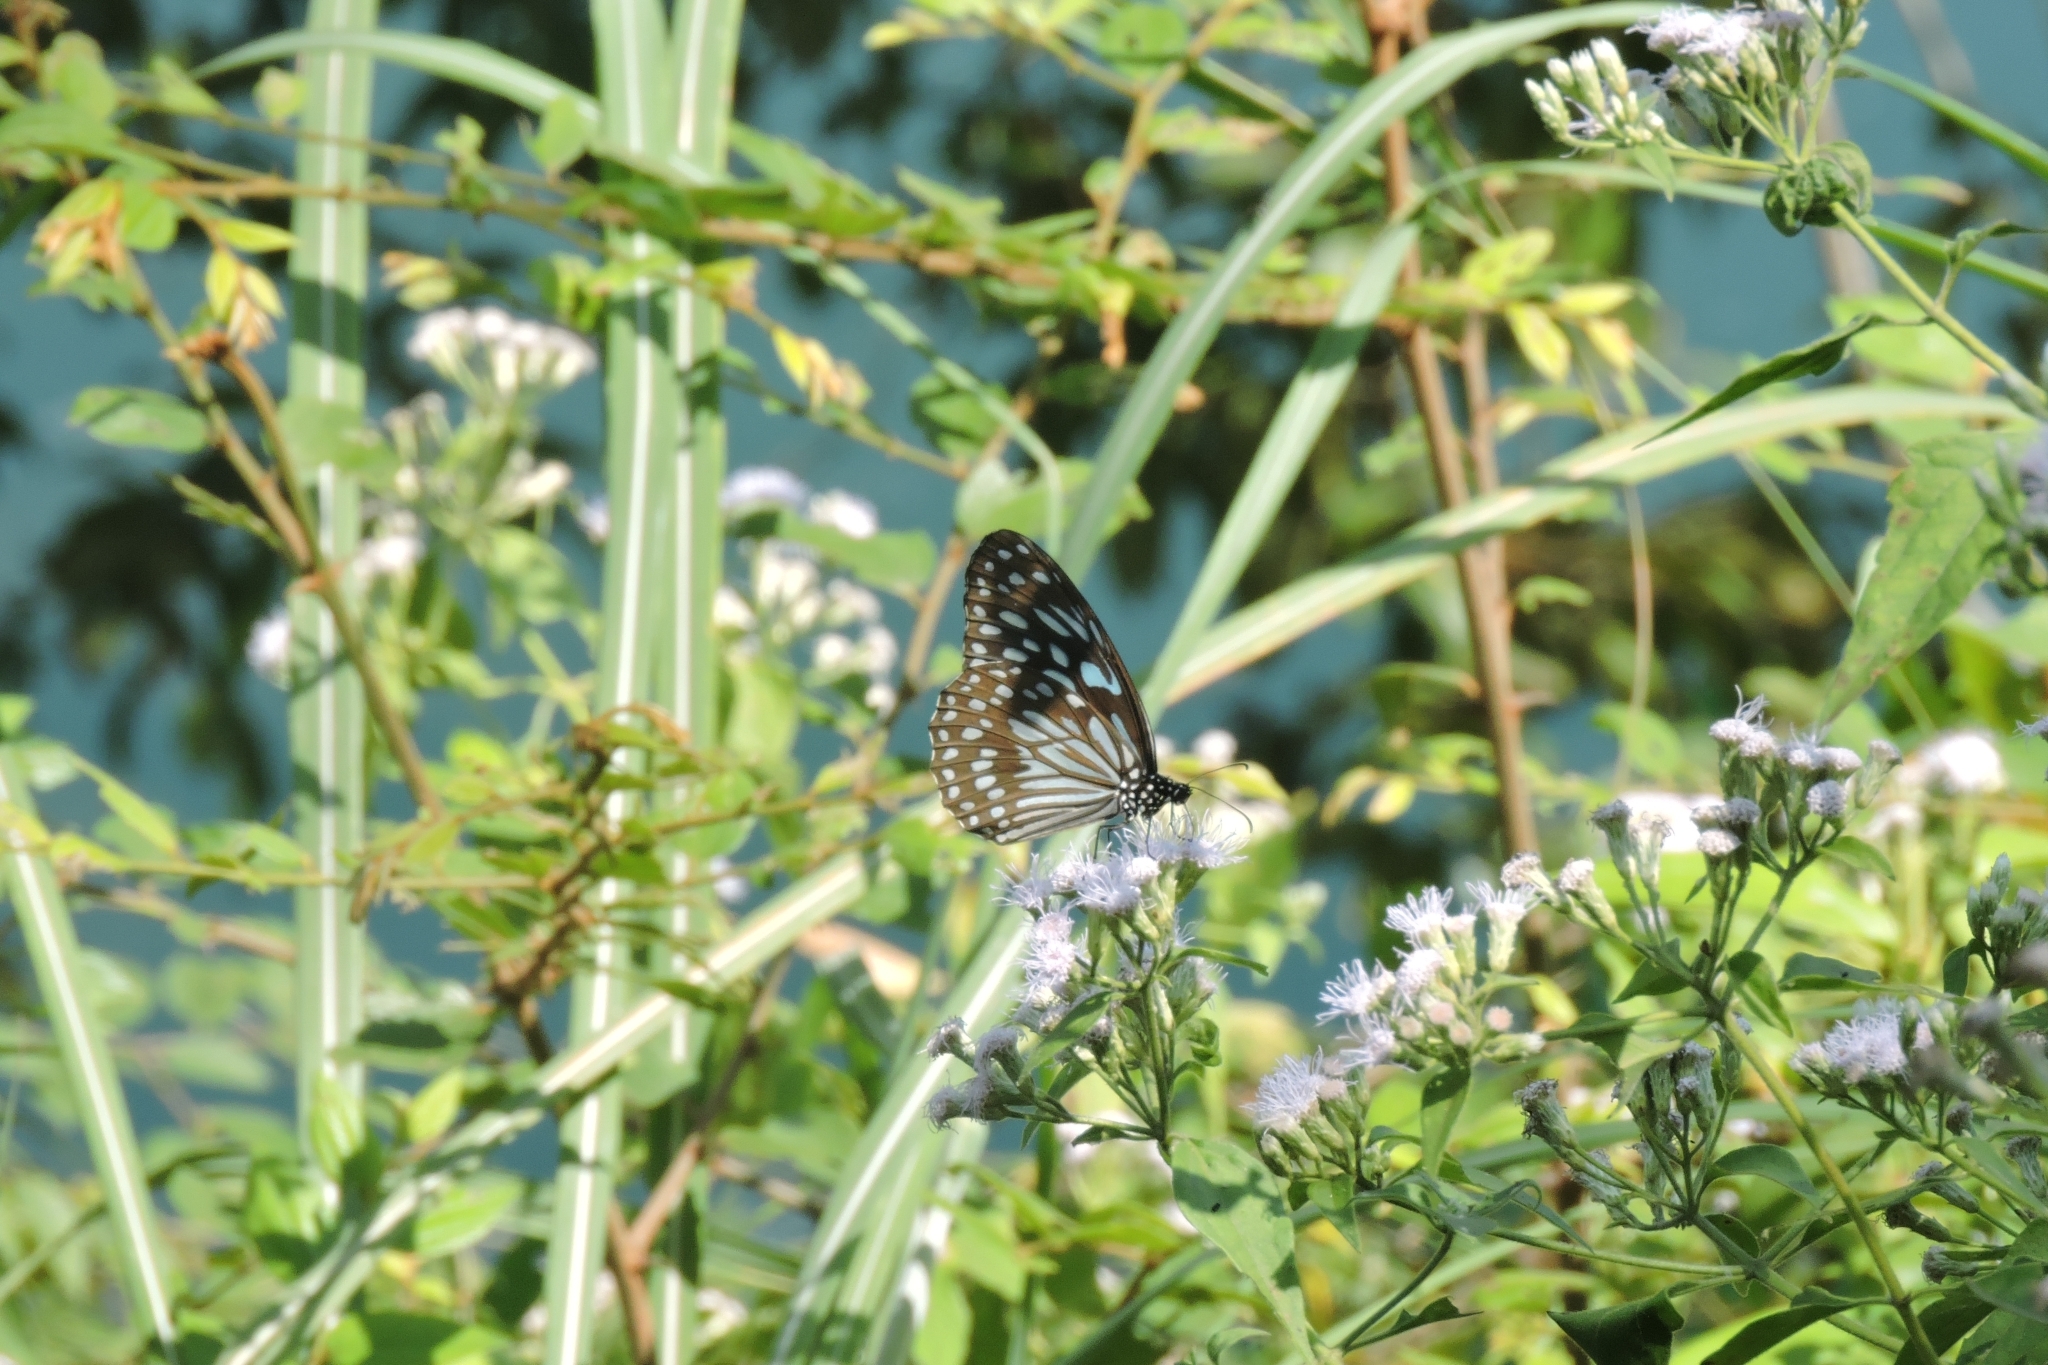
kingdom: Animalia
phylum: Arthropoda
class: Insecta
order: Lepidoptera
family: Nymphalidae
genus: Tirumala
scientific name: Tirumala septentrionis
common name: Dark blue tiger butterfly
